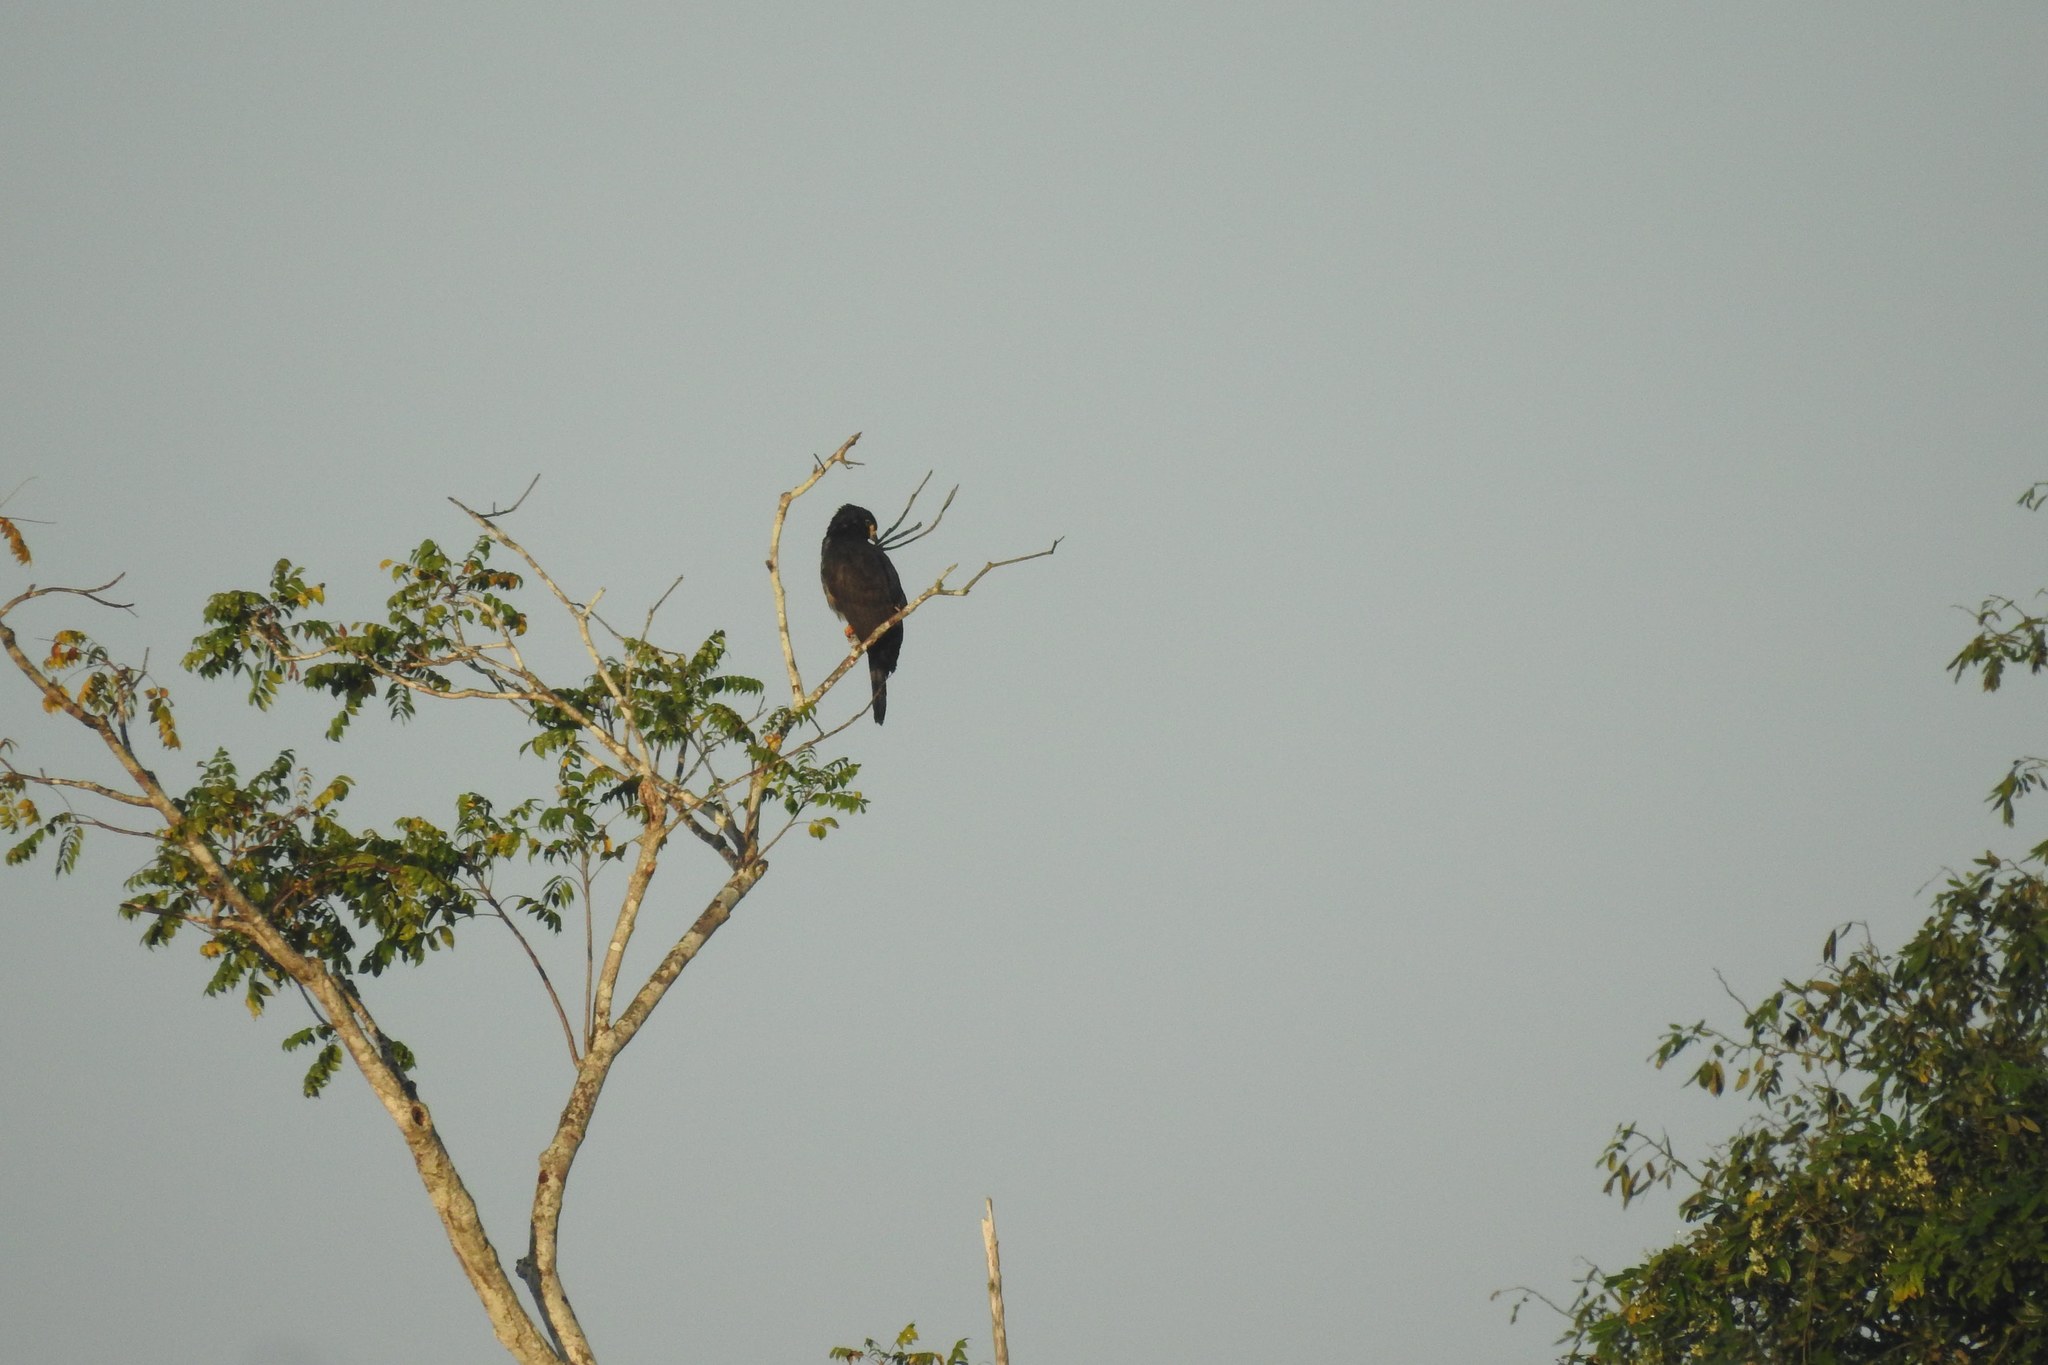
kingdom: Animalia
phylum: Chordata
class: Aves
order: Accipitriformes
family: Accipitridae
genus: Leptodon
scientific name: Leptodon cayanensis
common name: Gray-headed kite
